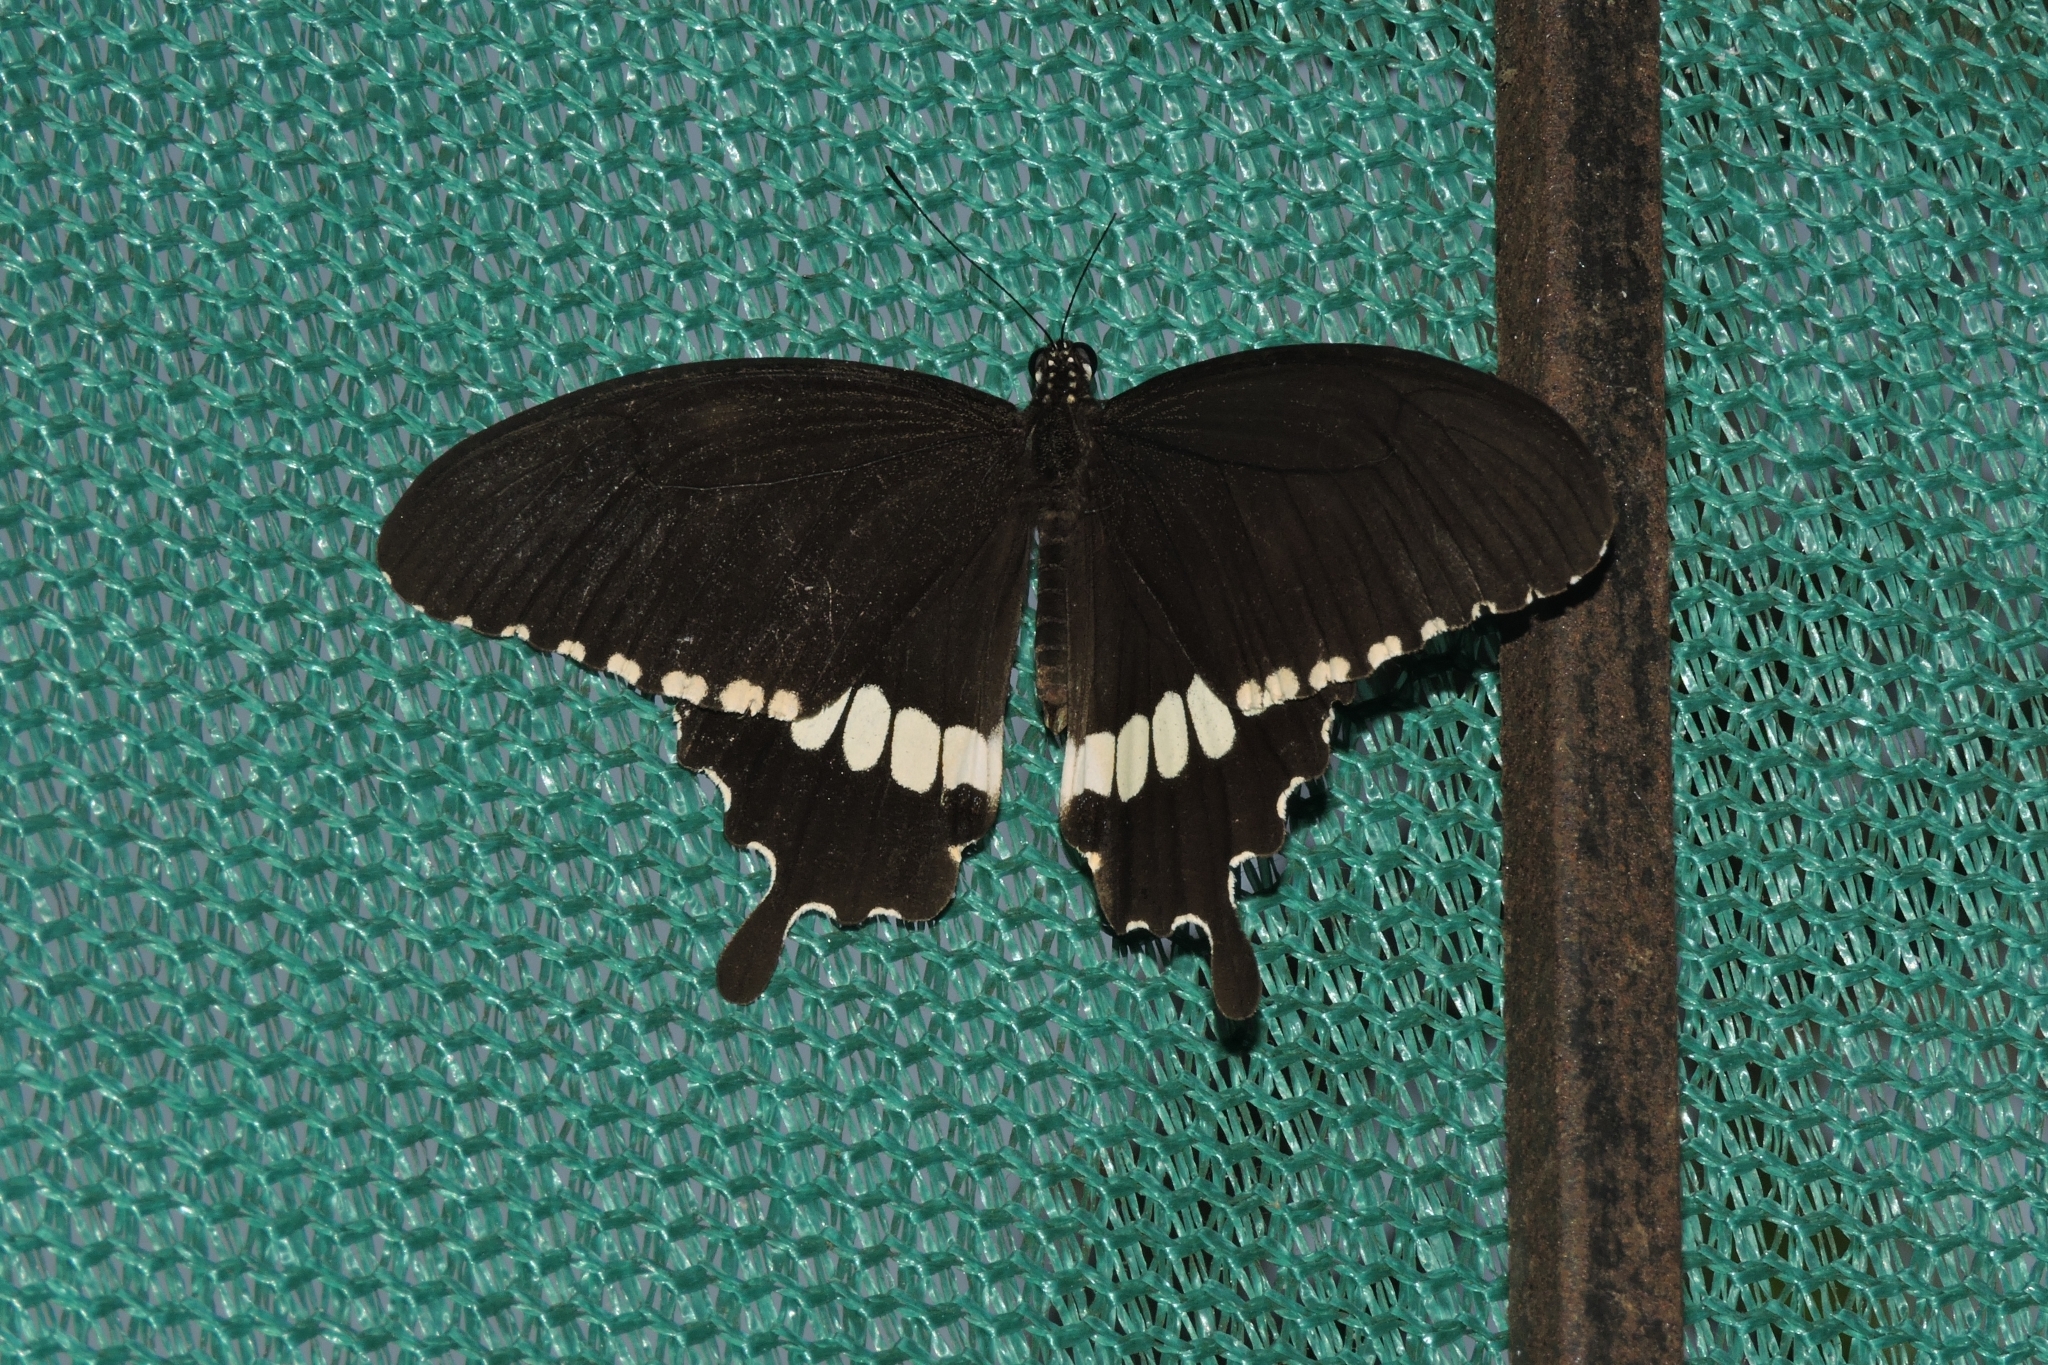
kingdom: Animalia
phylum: Arthropoda
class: Insecta
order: Lepidoptera
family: Papilionidae
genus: Papilio
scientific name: Papilio polytes
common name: Common mormon
